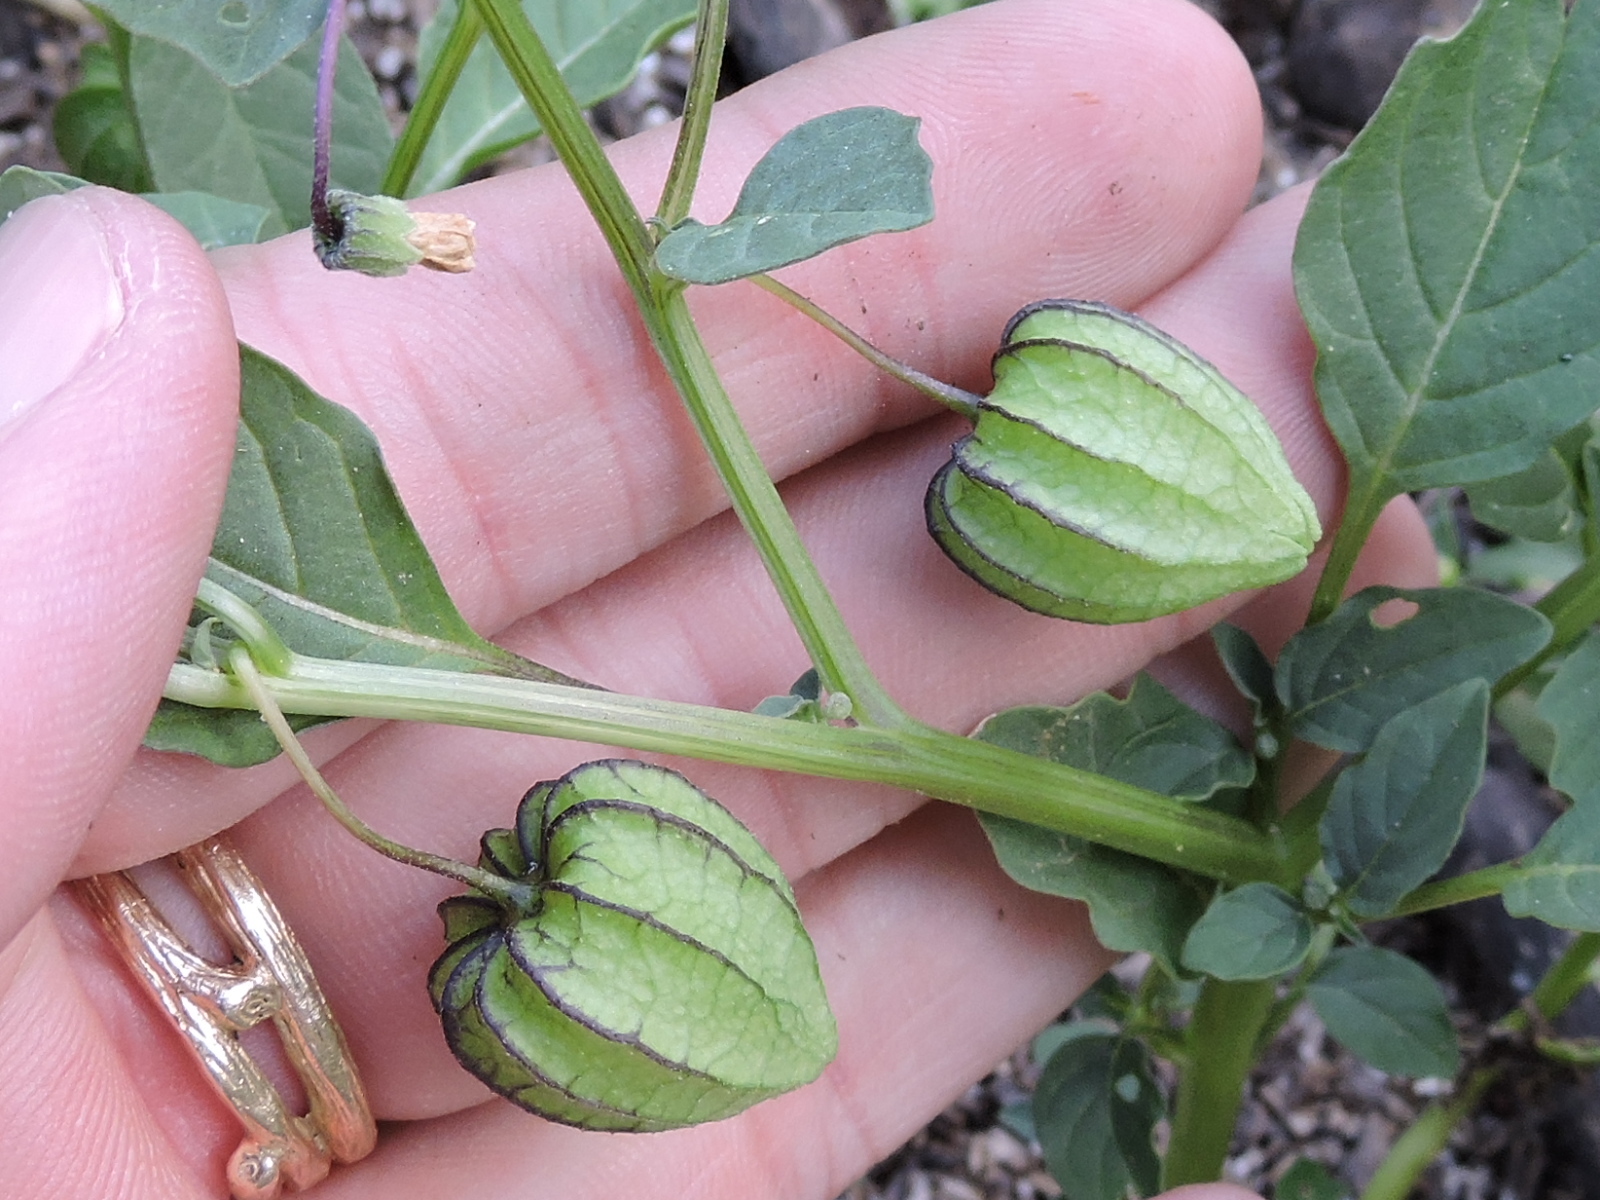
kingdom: Plantae
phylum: Tracheophyta
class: Magnoliopsida
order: Solanales
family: Solanaceae
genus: Physalis
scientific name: Physalis angulata
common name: Angular winter-cherry
